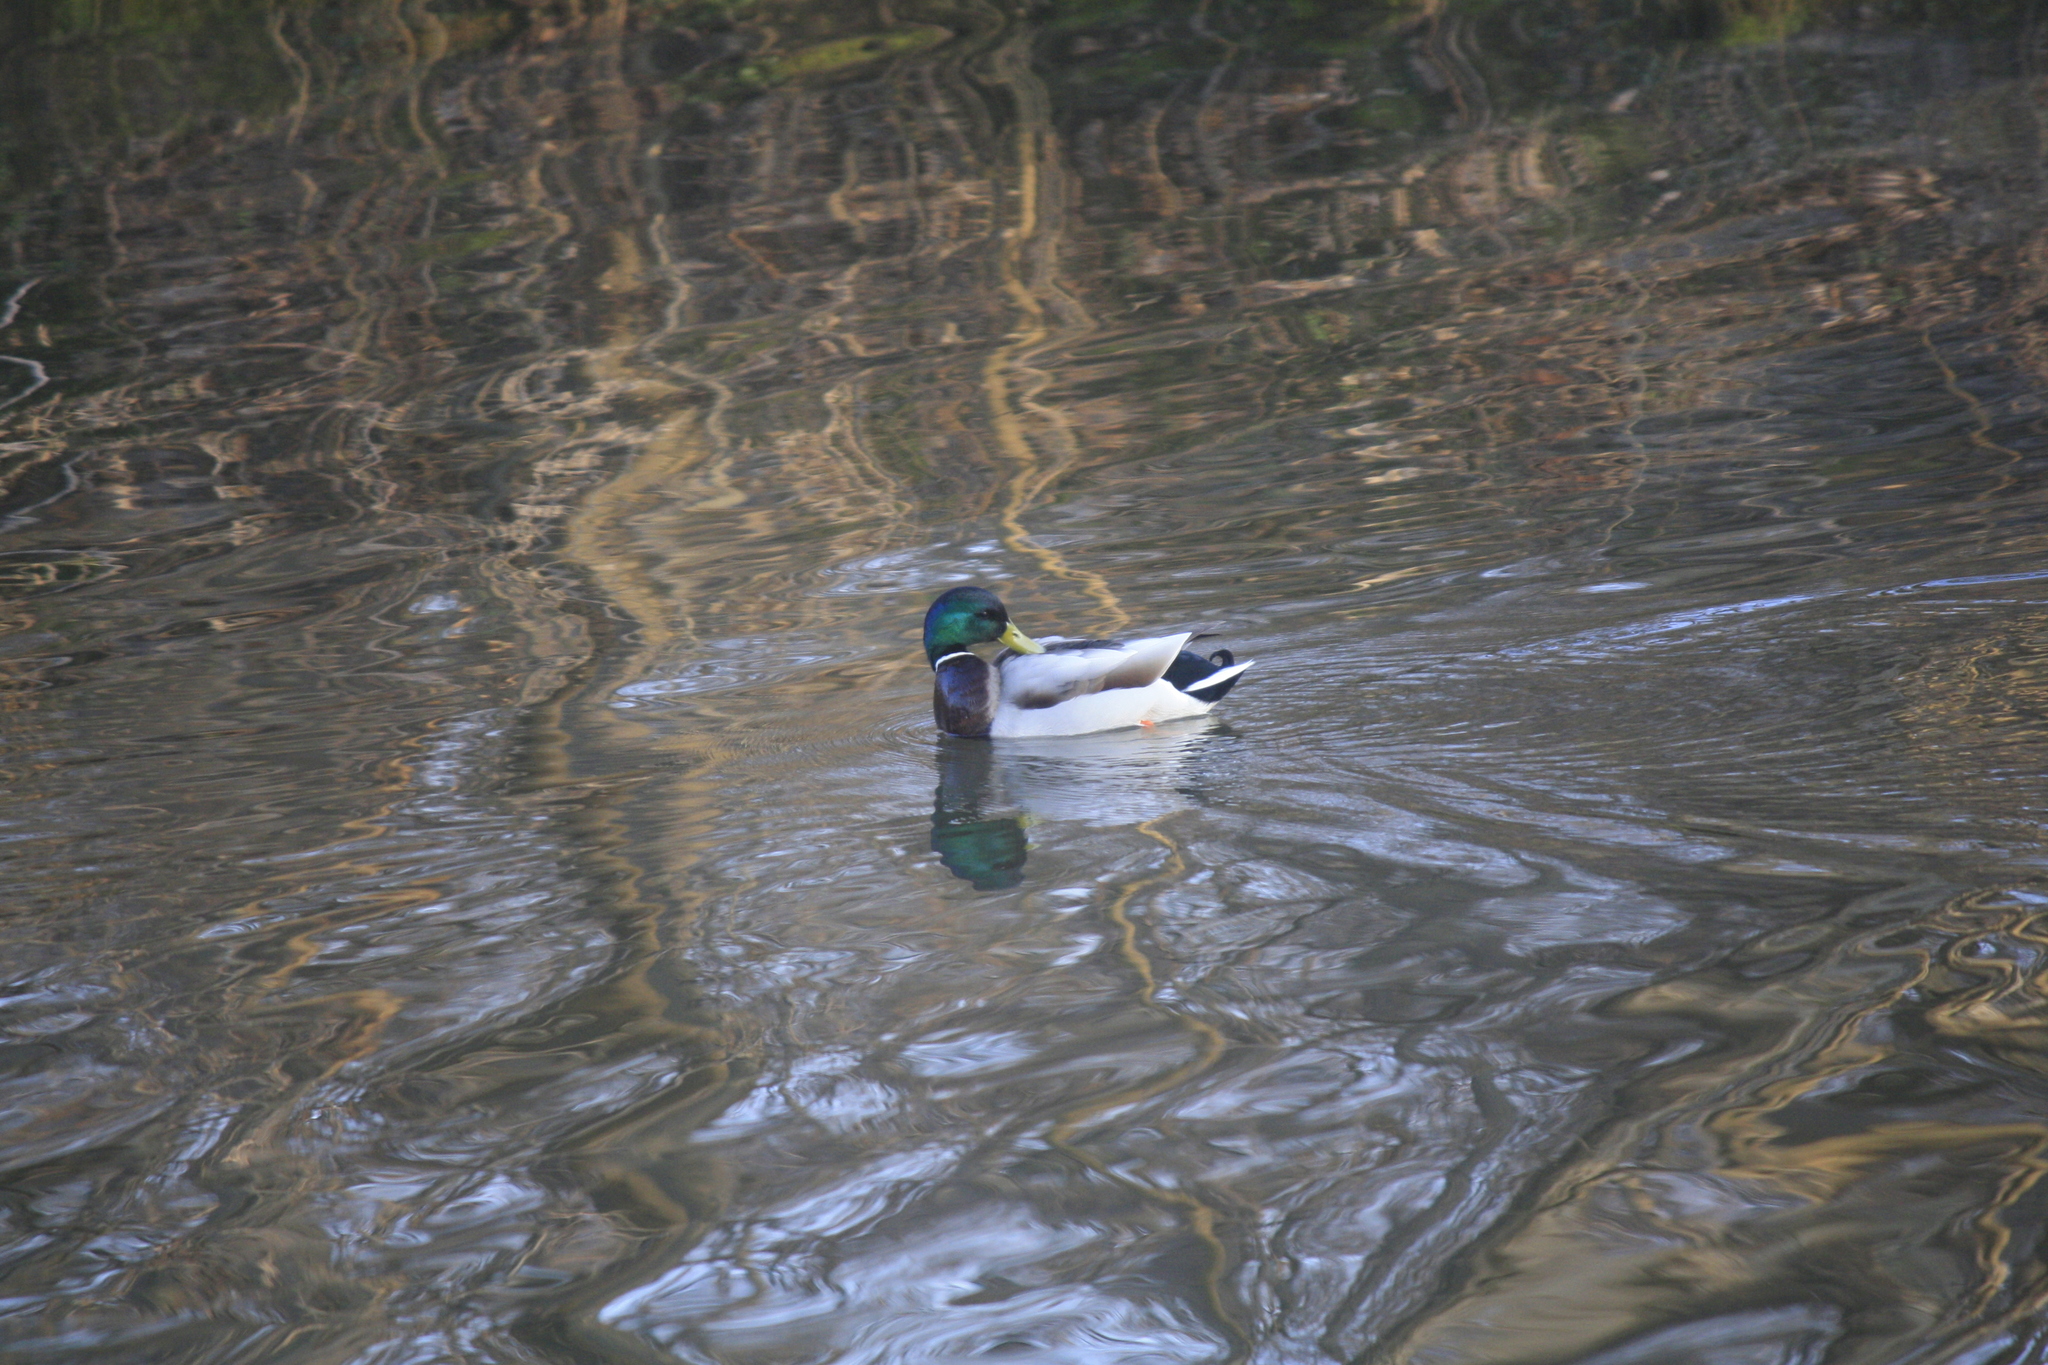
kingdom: Animalia
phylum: Chordata
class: Aves
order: Anseriformes
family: Anatidae
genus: Anas
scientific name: Anas platyrhynchos
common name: Mallard
